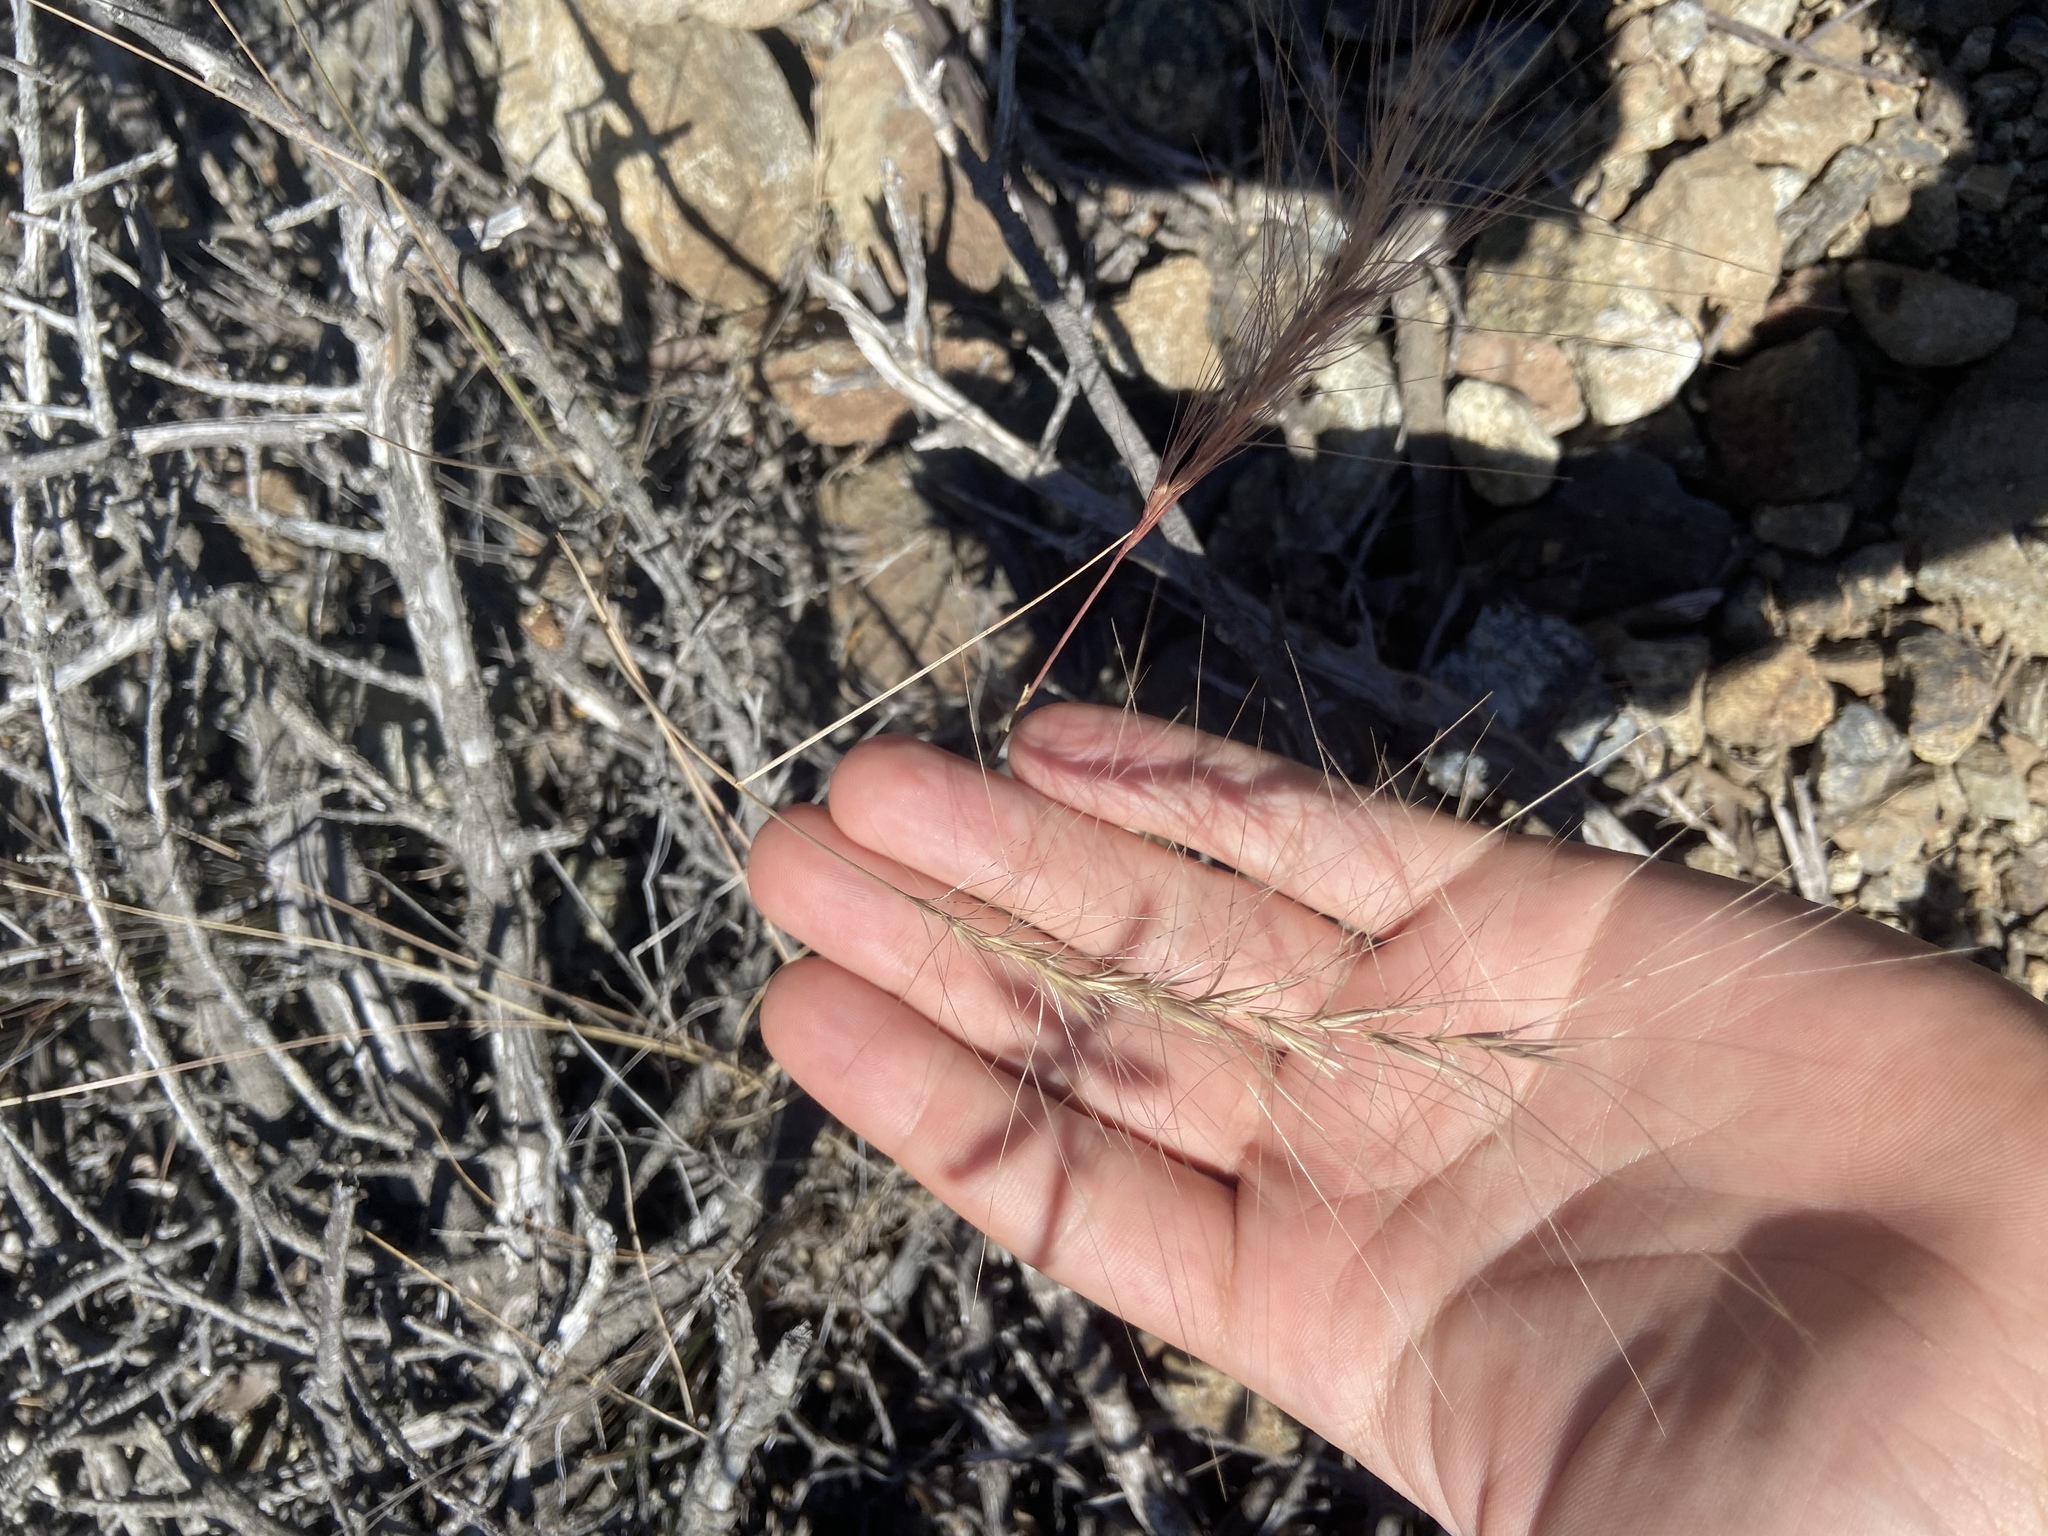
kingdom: Plantae
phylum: Tracheophyta
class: Liliopsida
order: Poales
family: Poaceae
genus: Elymus
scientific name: Elymus elymoides
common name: Bottlebrush squirreltail
